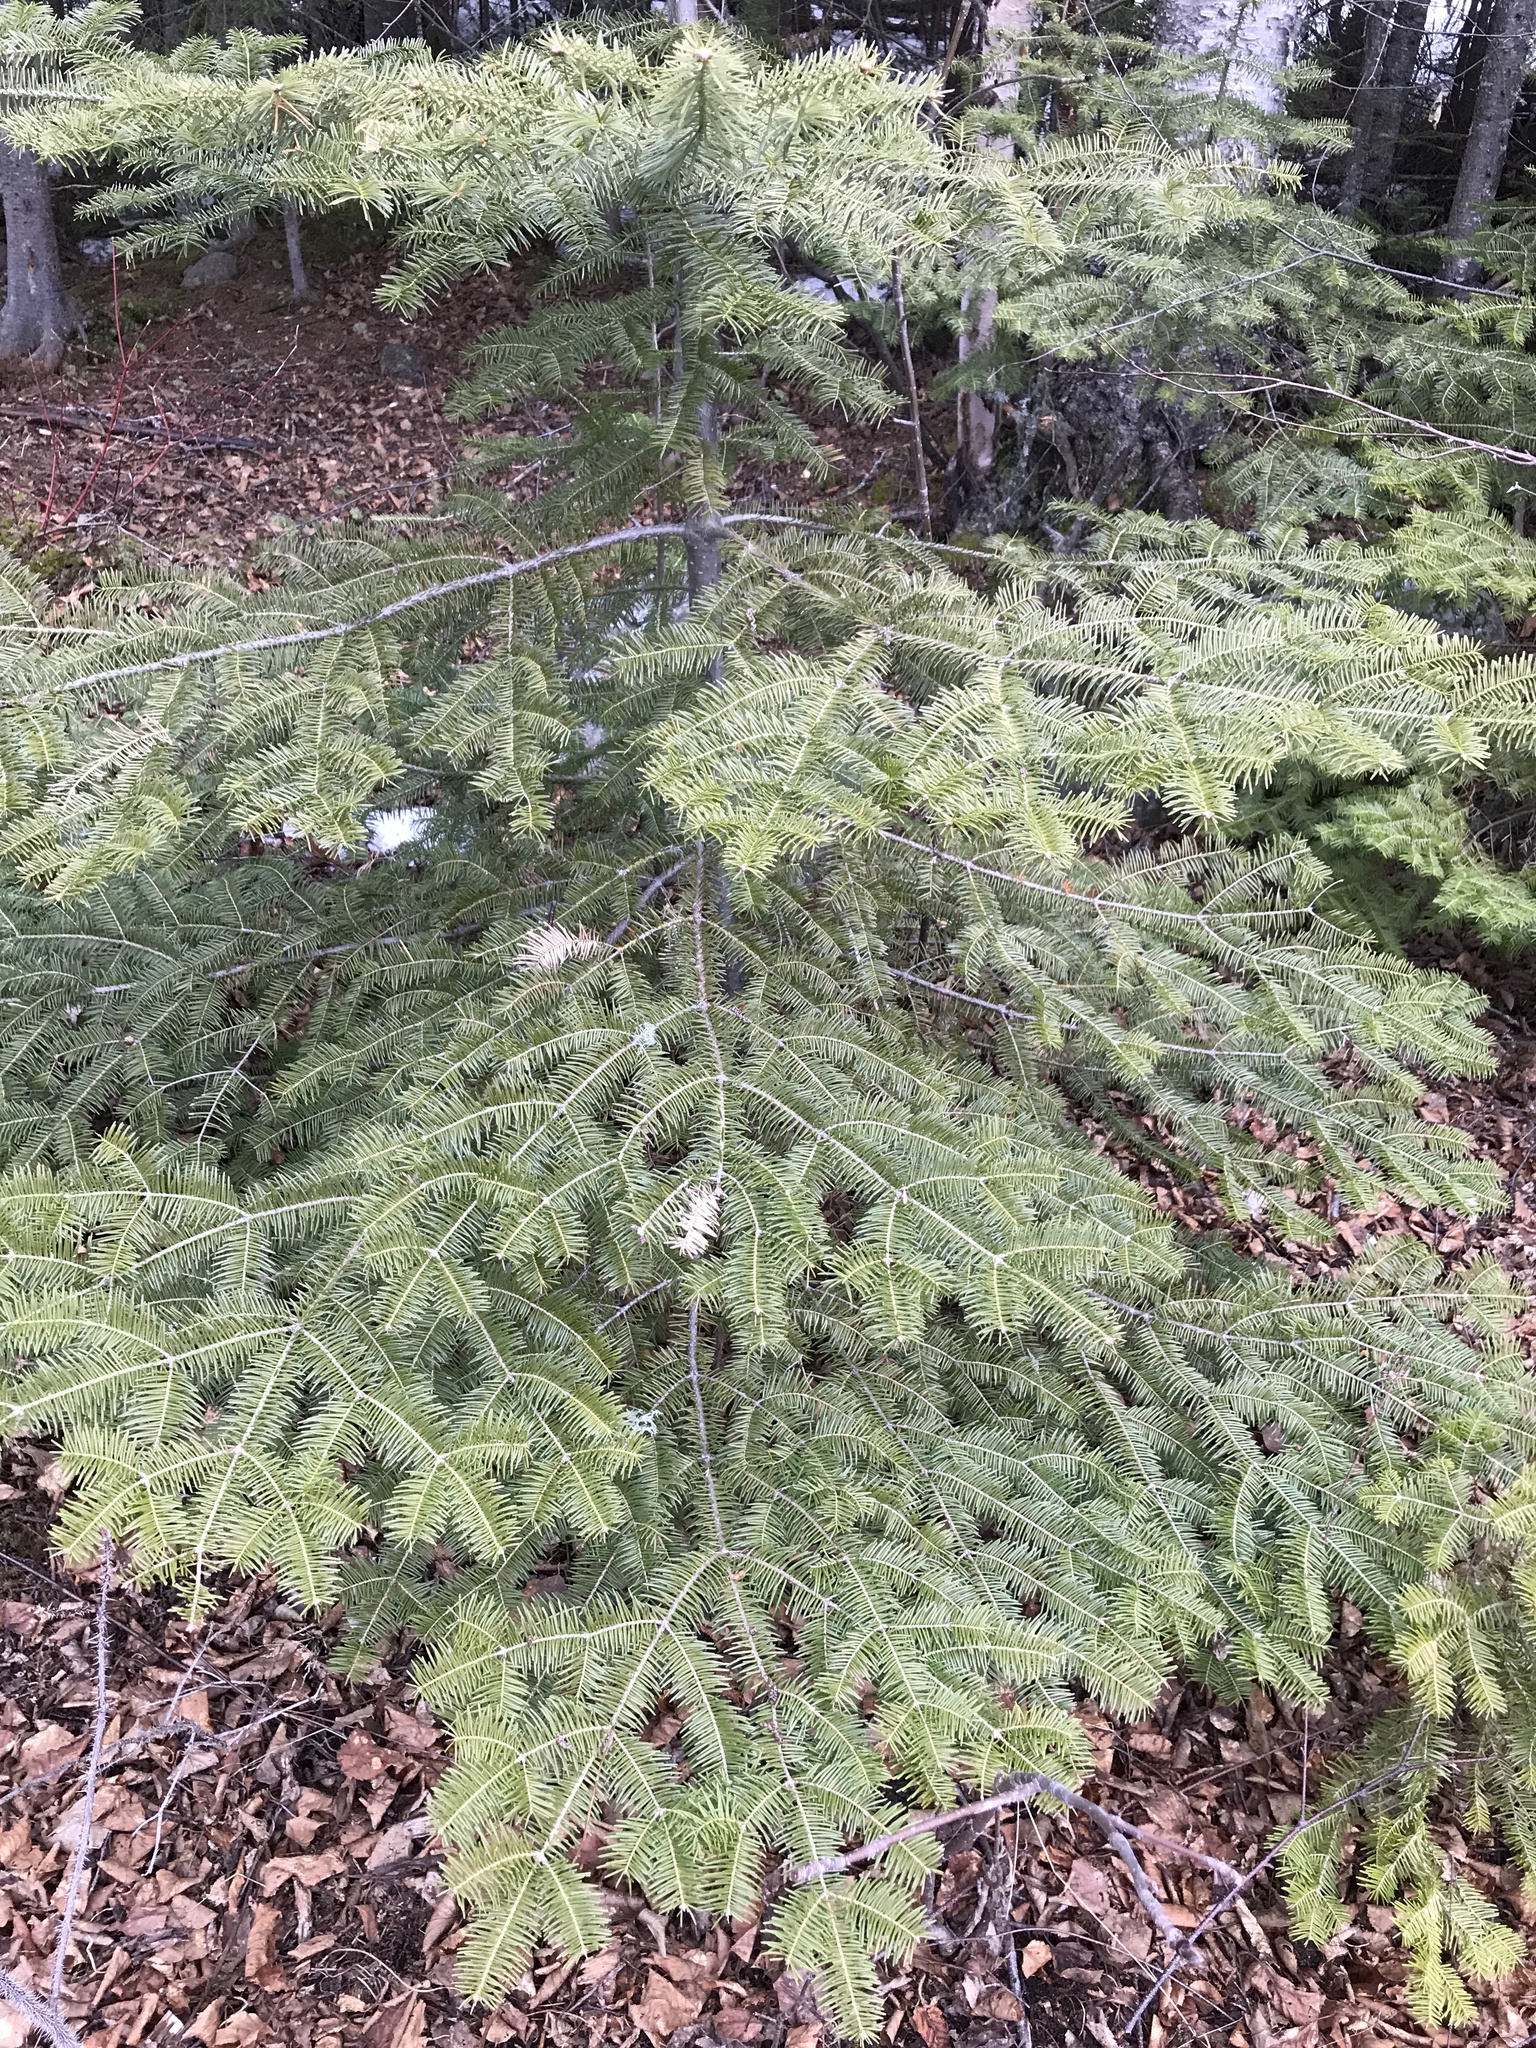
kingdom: Plantae
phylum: Tracheophyta
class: Pinopsida
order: Pinales
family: Pinaceae
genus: Abies
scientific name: Abies balsamea
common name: Balsam fir
